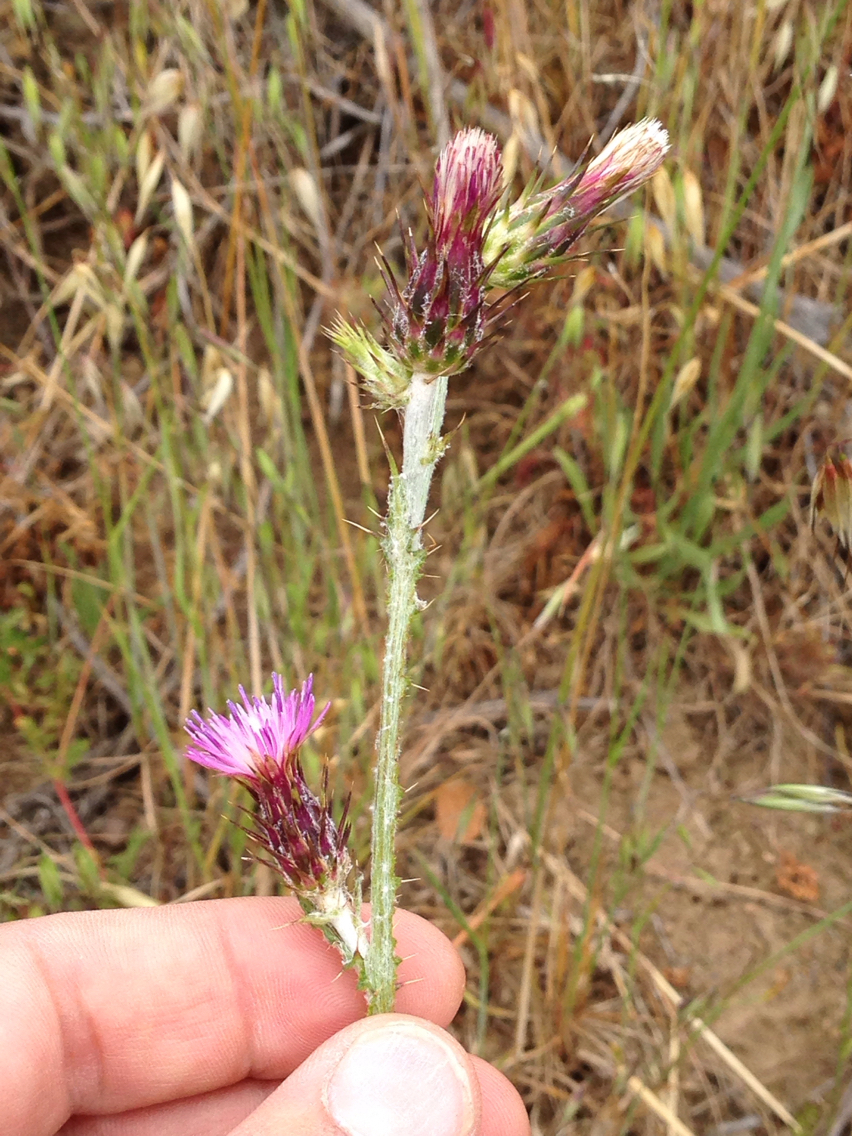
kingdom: Plantae
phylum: Tracheophyta
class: Magnoliopsida
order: Asterales
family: Asteraceae
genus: Carduus
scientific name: Carduus pycnocephalus
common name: Plymouth thistle
